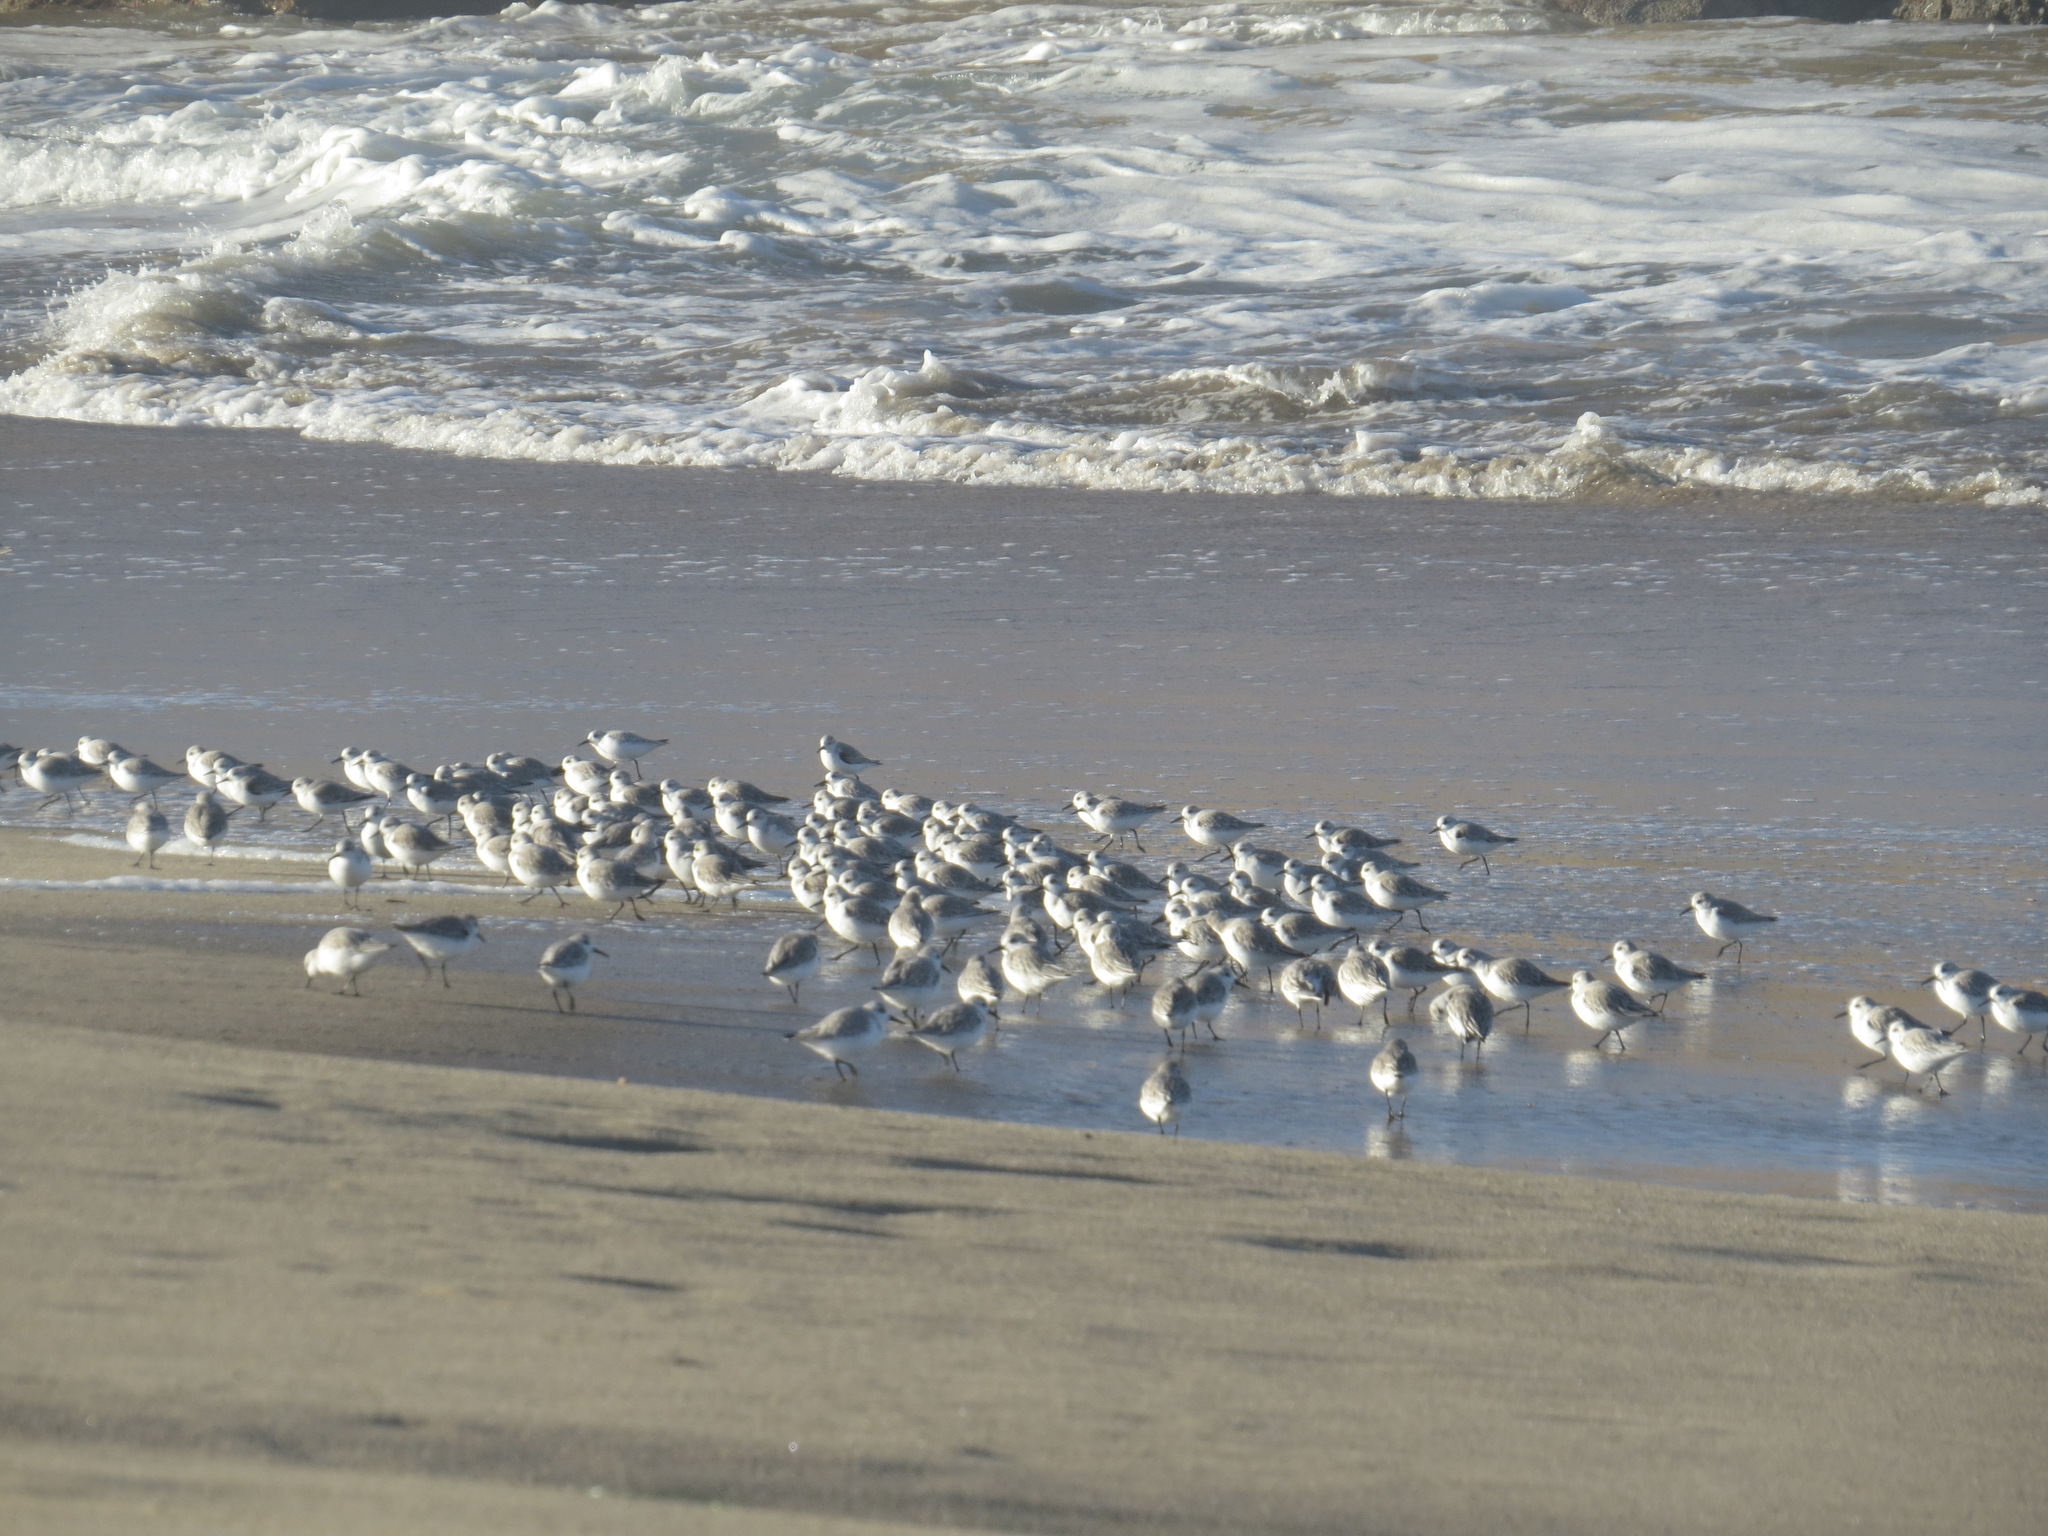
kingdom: Animalia
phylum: Chordata
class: Aves
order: Charadriiformes
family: Scolopacidae
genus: Calidris
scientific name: Calidris alba
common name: Sanderling
